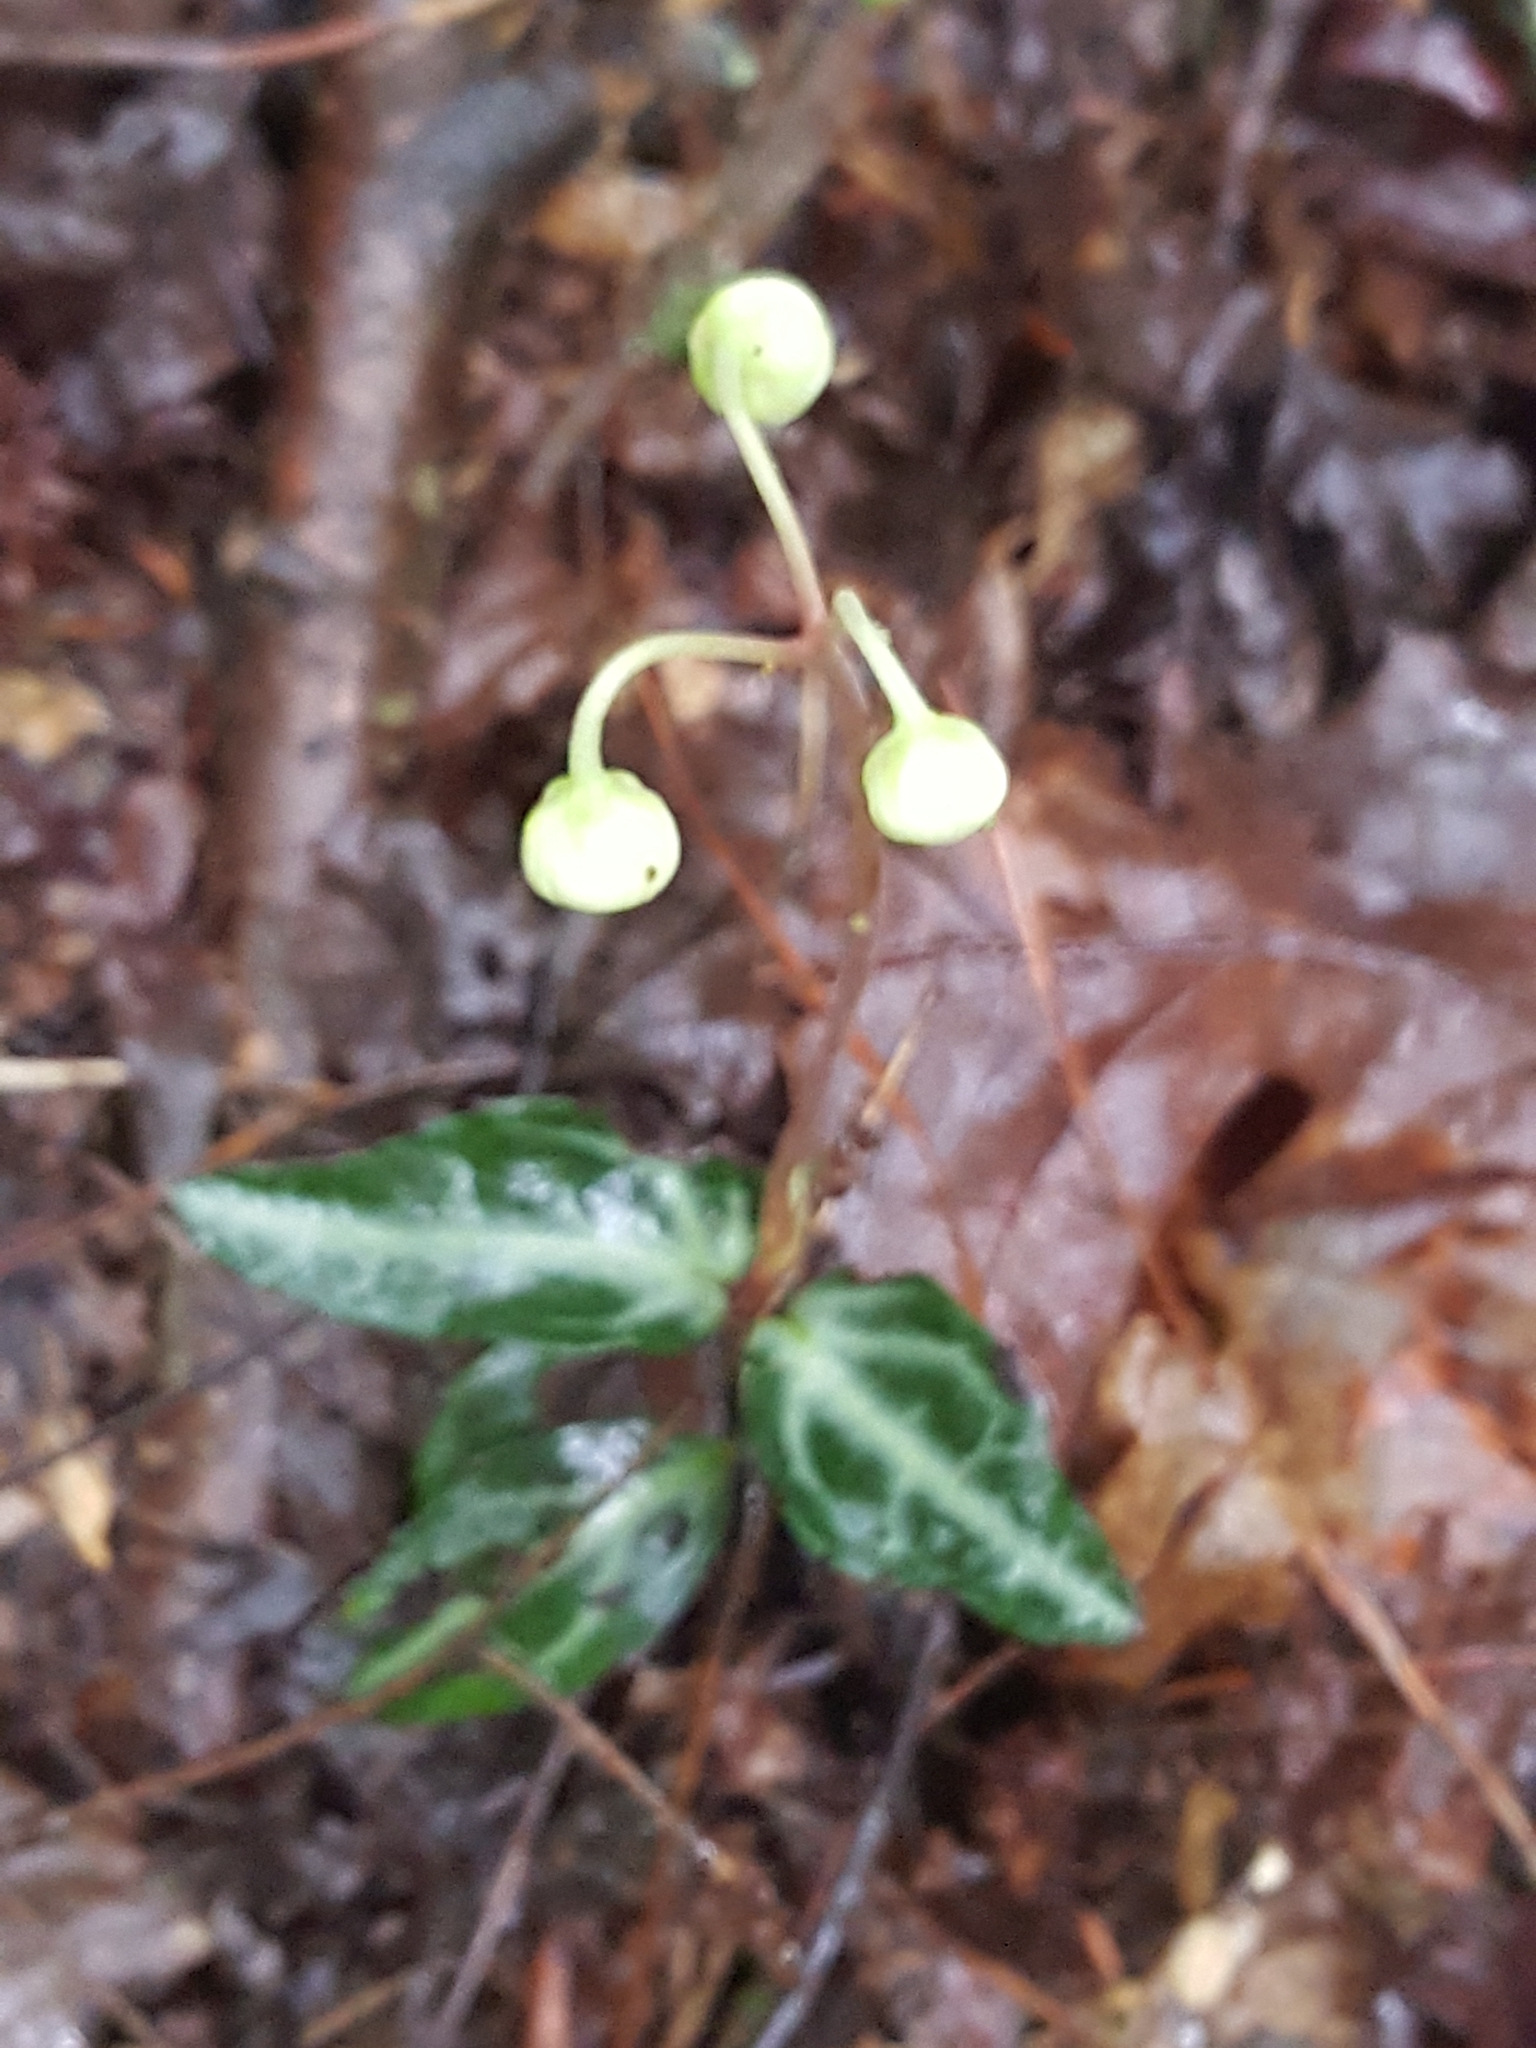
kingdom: Plantae
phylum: Tracheophyta
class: Magnoliopsida
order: Ericales
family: Ericaceae
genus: Chimaphila
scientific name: Chimaphila maculata
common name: Spotted pipsissewa
